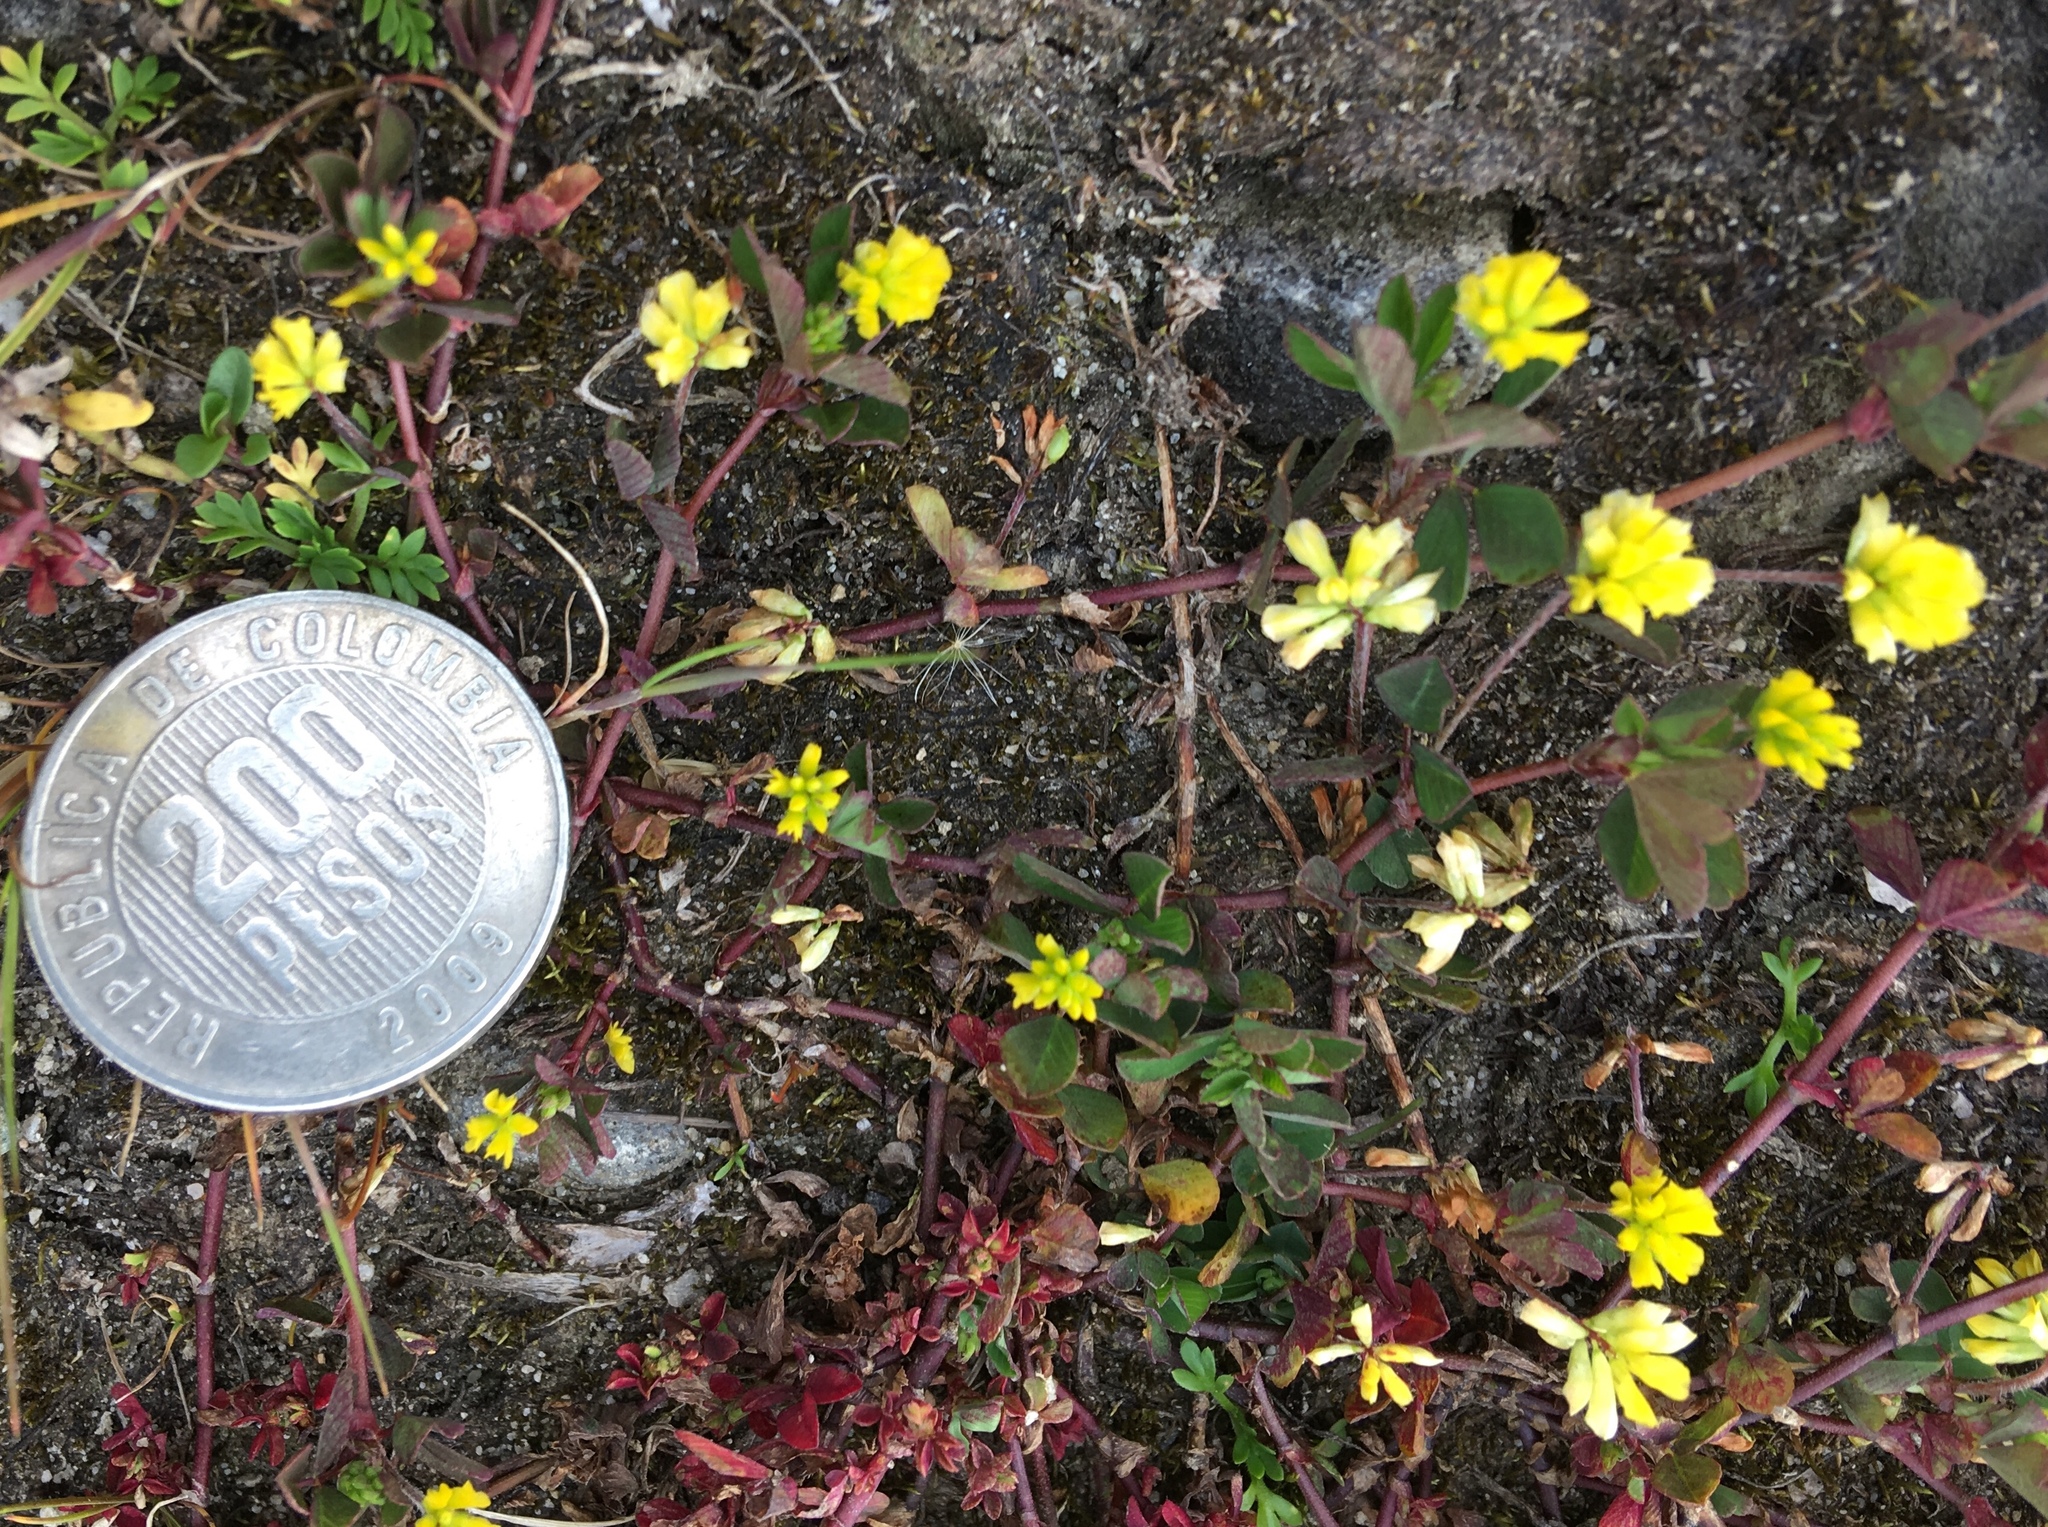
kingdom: Plantae
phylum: Tracheophyta
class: Magnoliopsida
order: Fabales
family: Fabaceae
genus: Trifolium
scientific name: Trifolium dubium
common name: Suckling clover
